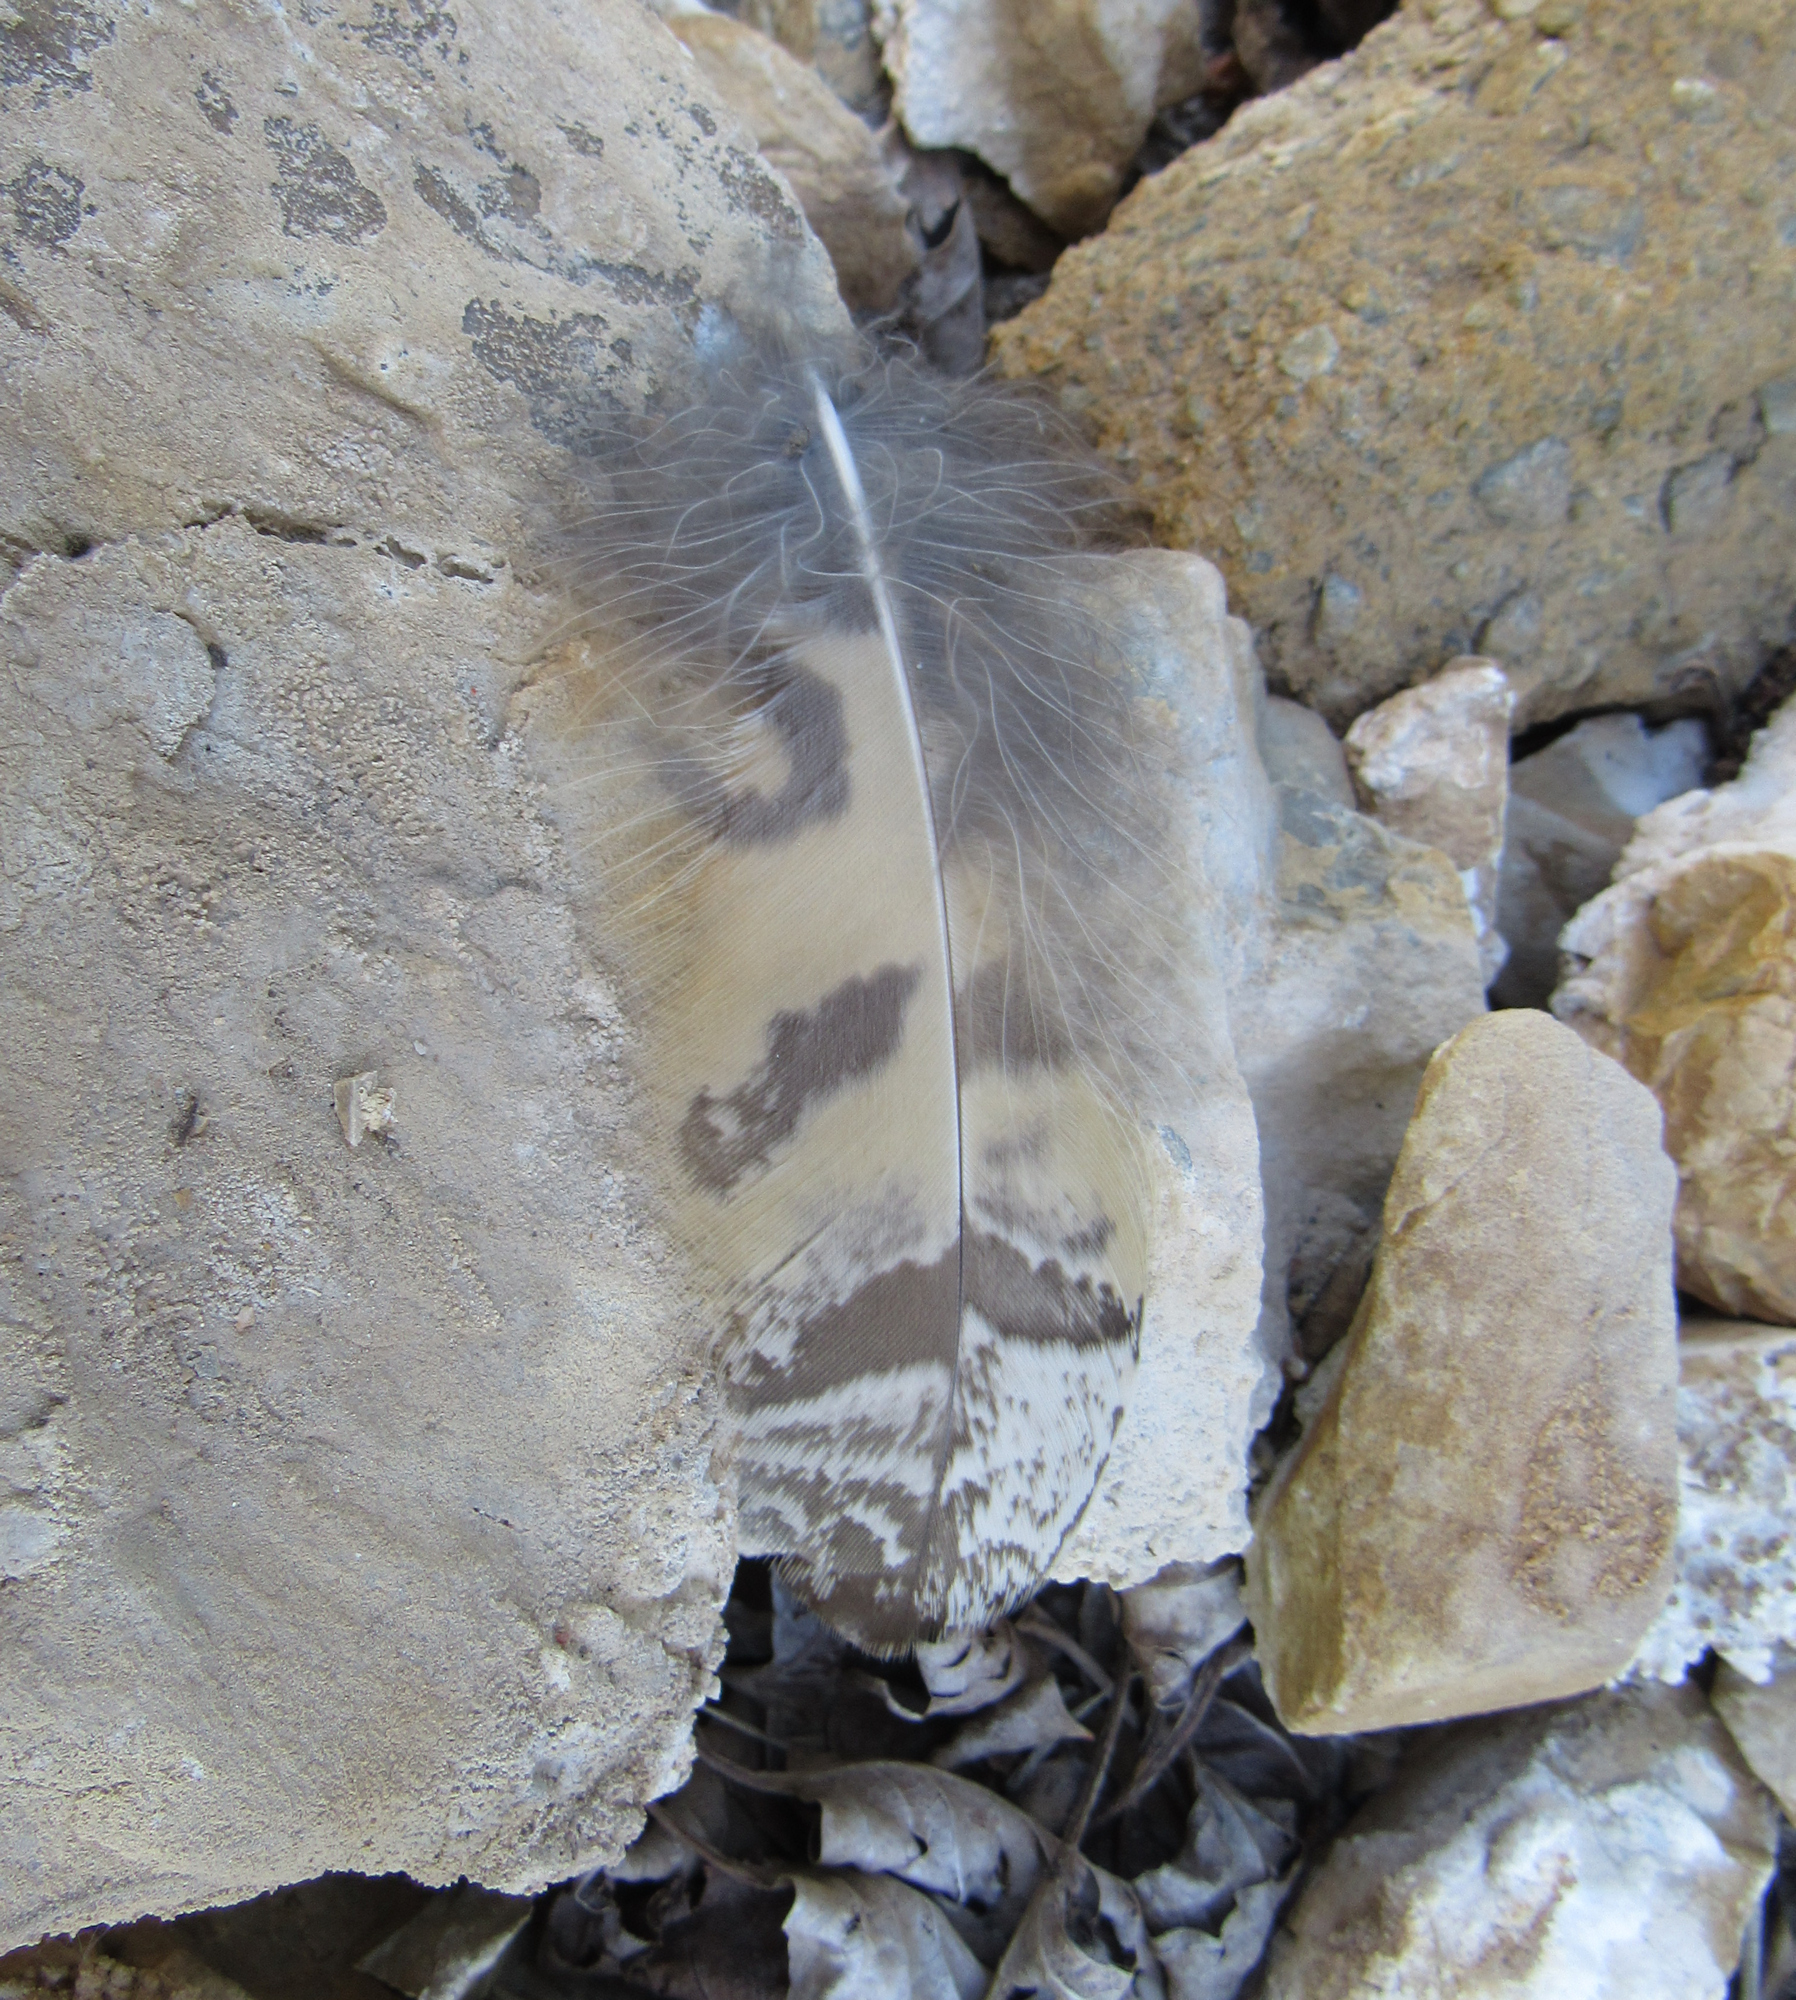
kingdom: Animalia
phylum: Chordata
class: Aves
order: Strigiformes
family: Strigidae
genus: Bubo
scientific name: Bubo virginianus
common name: Great horned owl
